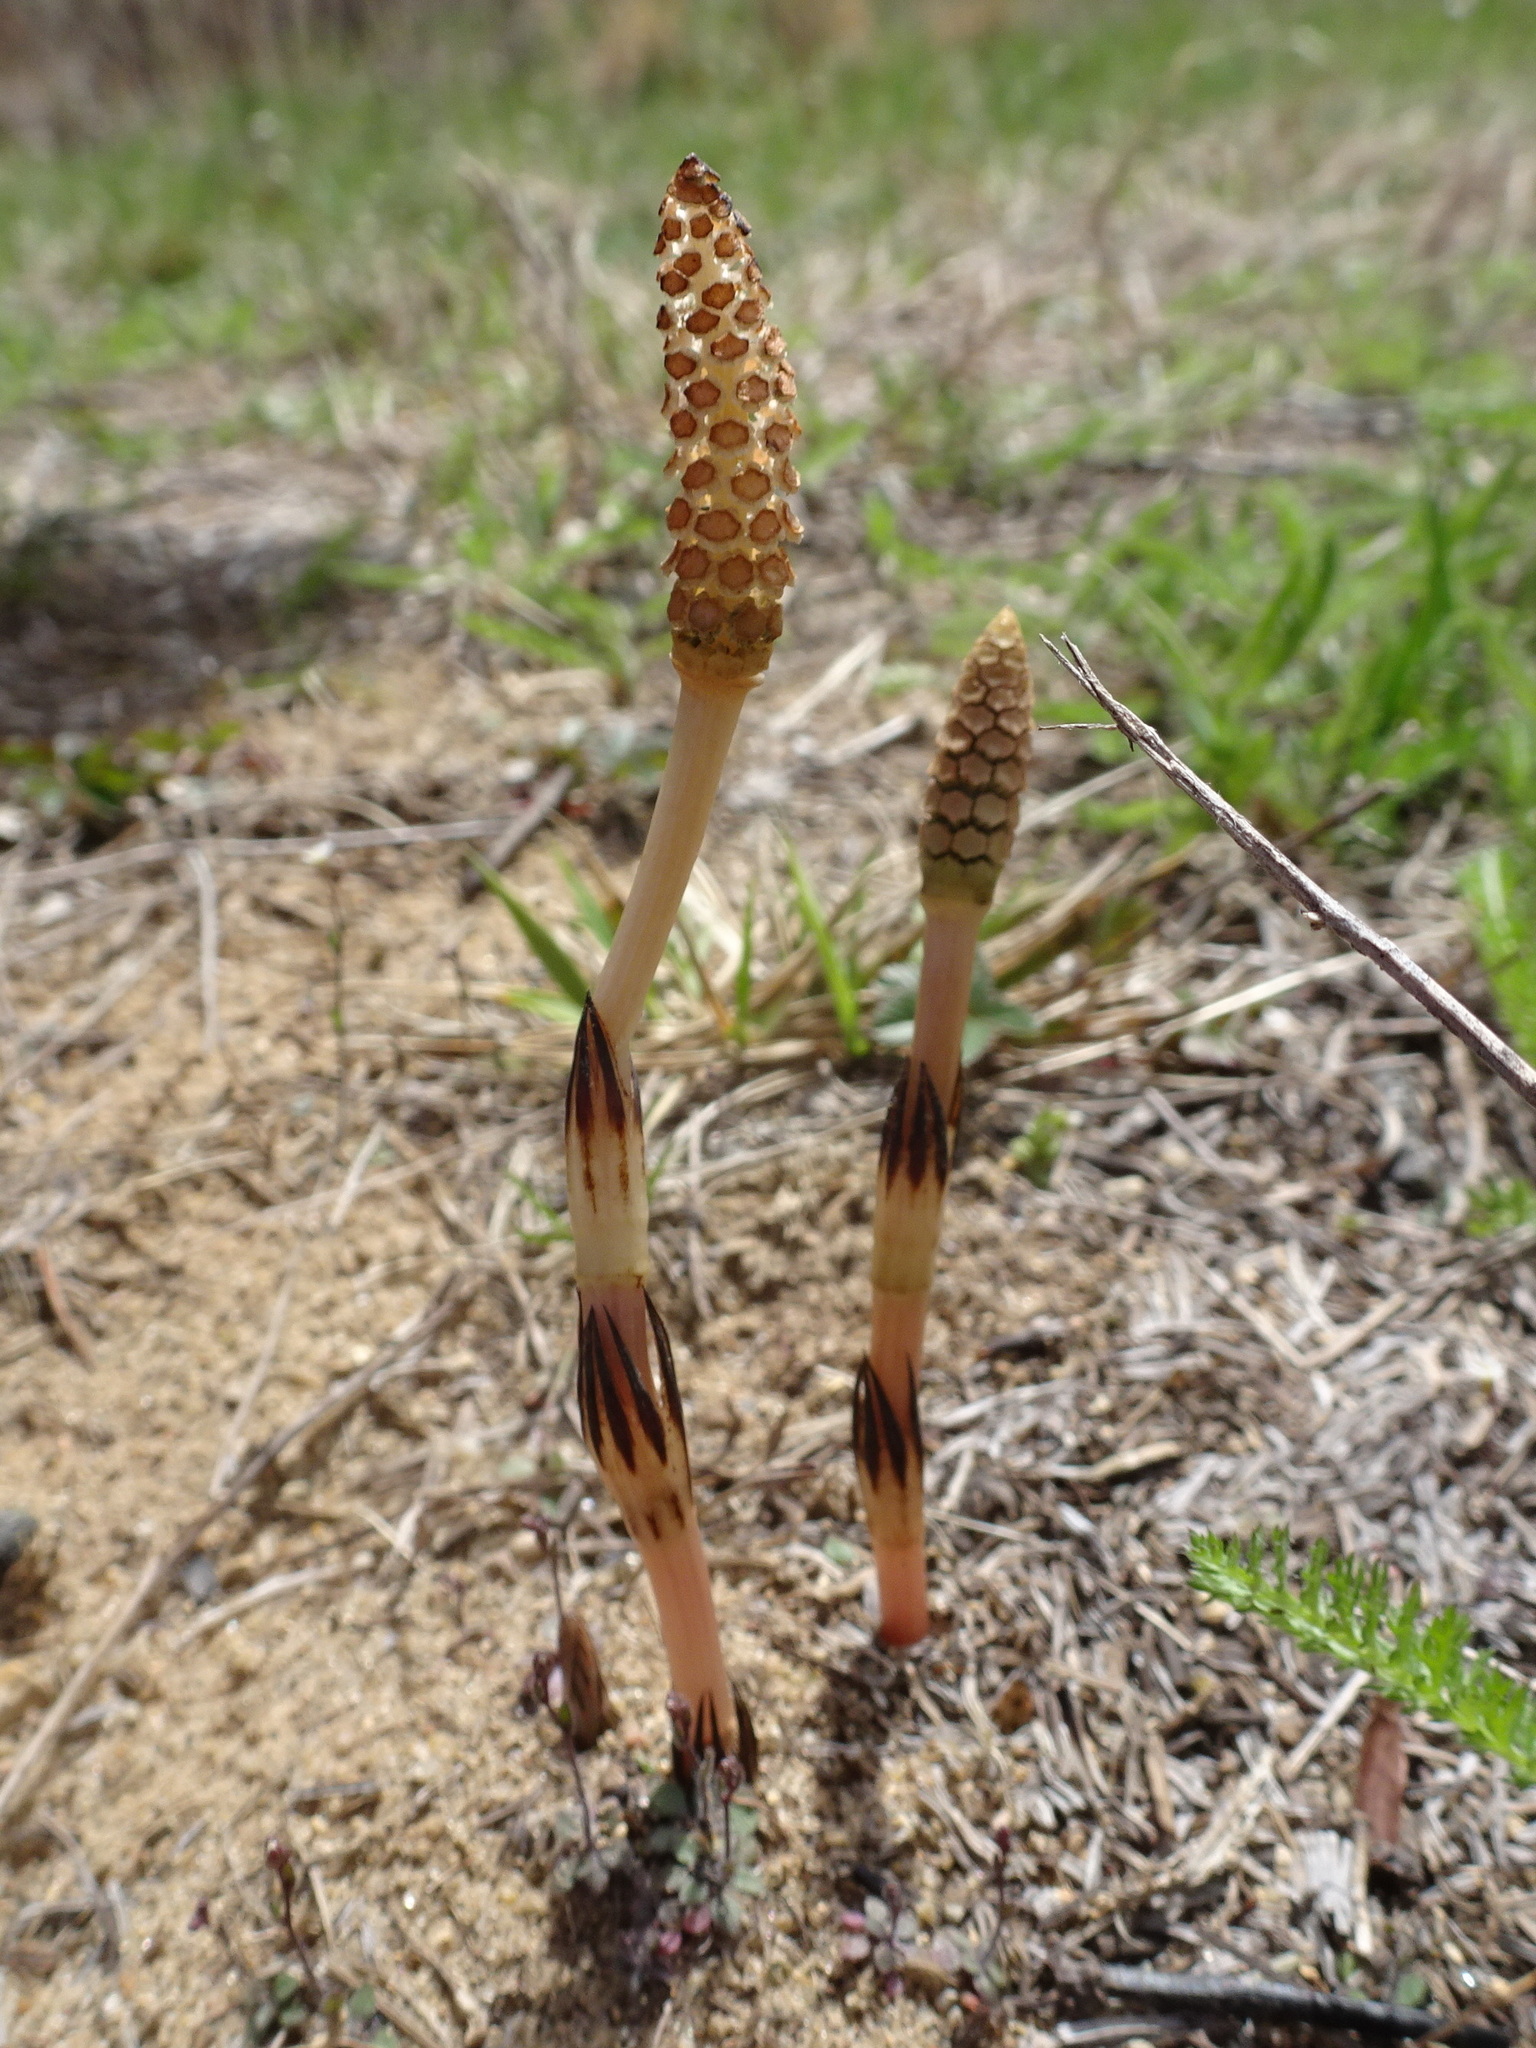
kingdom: Plantae
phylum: Tracheophyta
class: Polypodiopsida
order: Equisetales
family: Equisetaceae
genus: Equisetum
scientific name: Equisetum arvense
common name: Field horsetail
